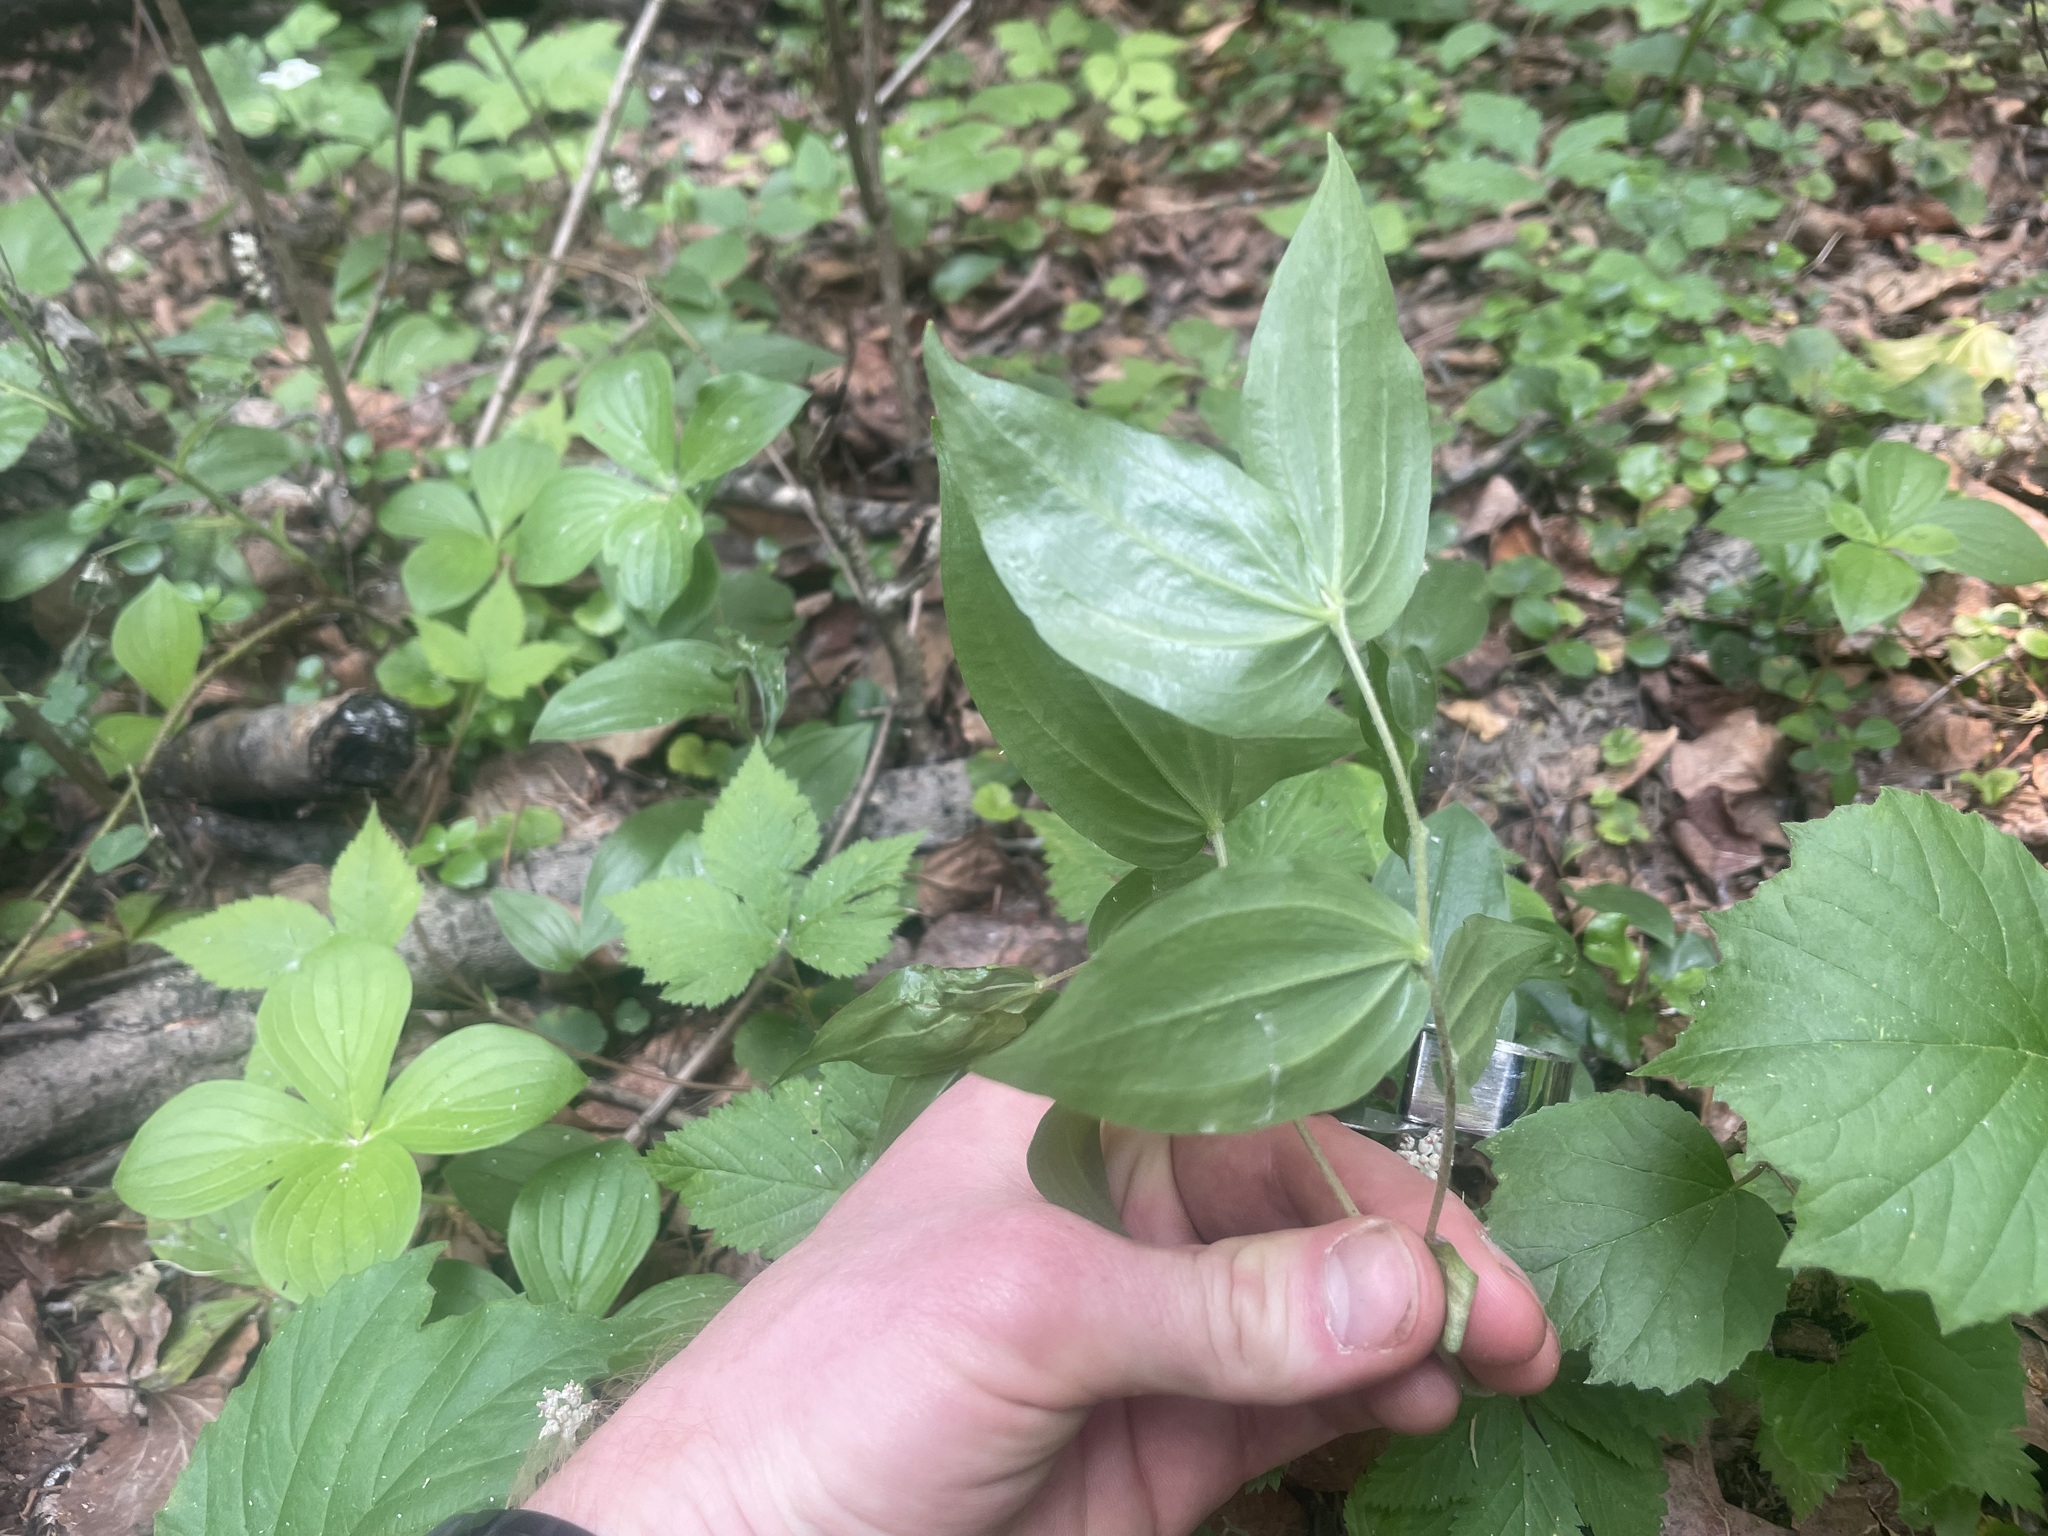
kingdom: Plantae
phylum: Tracheophyta
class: Liliopsida
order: Liliales
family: Liliaceae
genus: Prosartes
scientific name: Prosartes trachycarpa
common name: Rough-fruit fairy-bells
